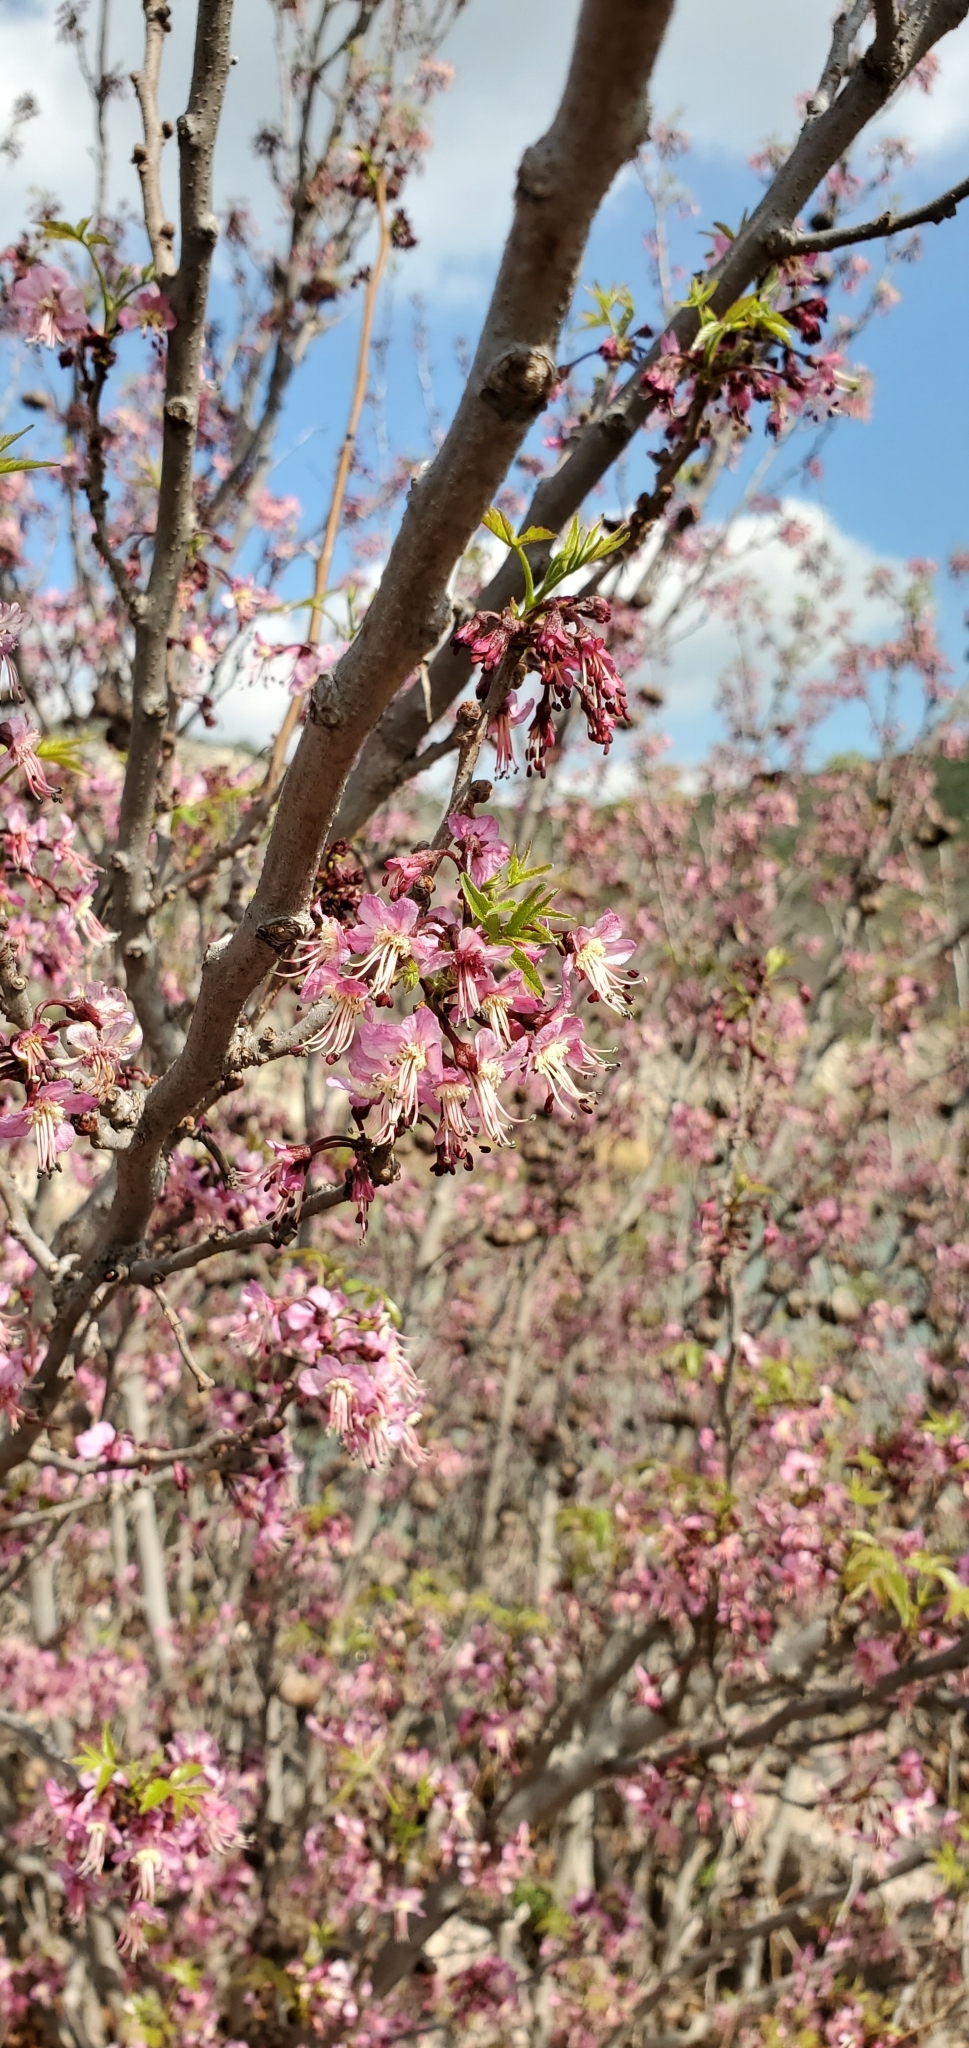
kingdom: Plantae
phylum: Tracheophyta
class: Magnoliopsida
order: Sapindales
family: Sapindaceae
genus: Ungnadia
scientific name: Ungnadia speciosa
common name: Texas-buckeye
